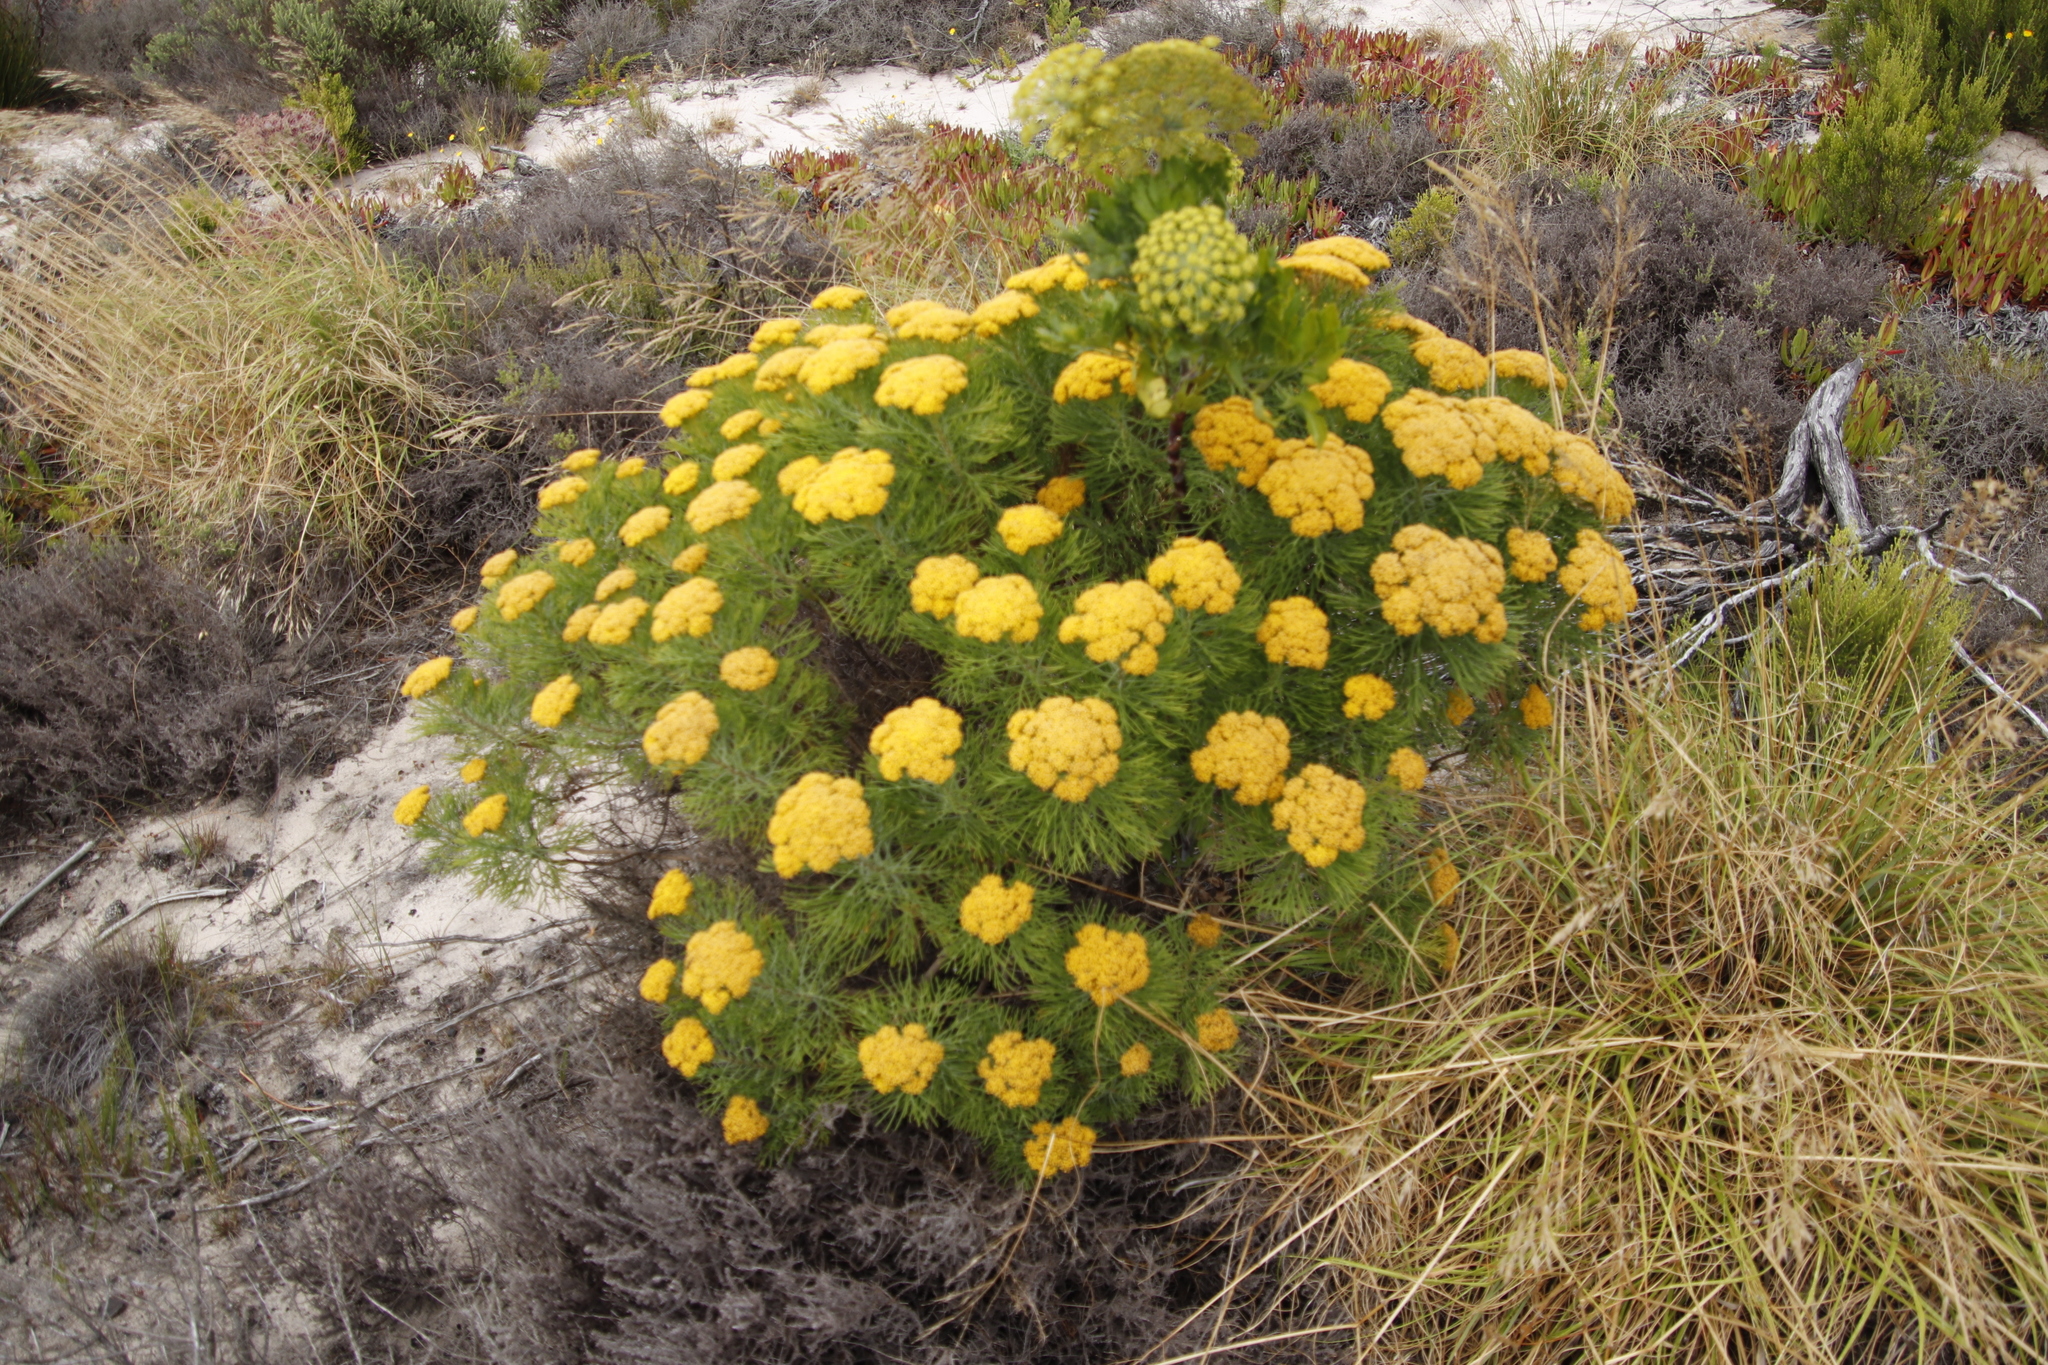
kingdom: Plantae
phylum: Tracheophyta
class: Magnoliopsida
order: Asterales
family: Asteraceae
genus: Hymenolepis
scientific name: Hymenolepis crithmifolia
